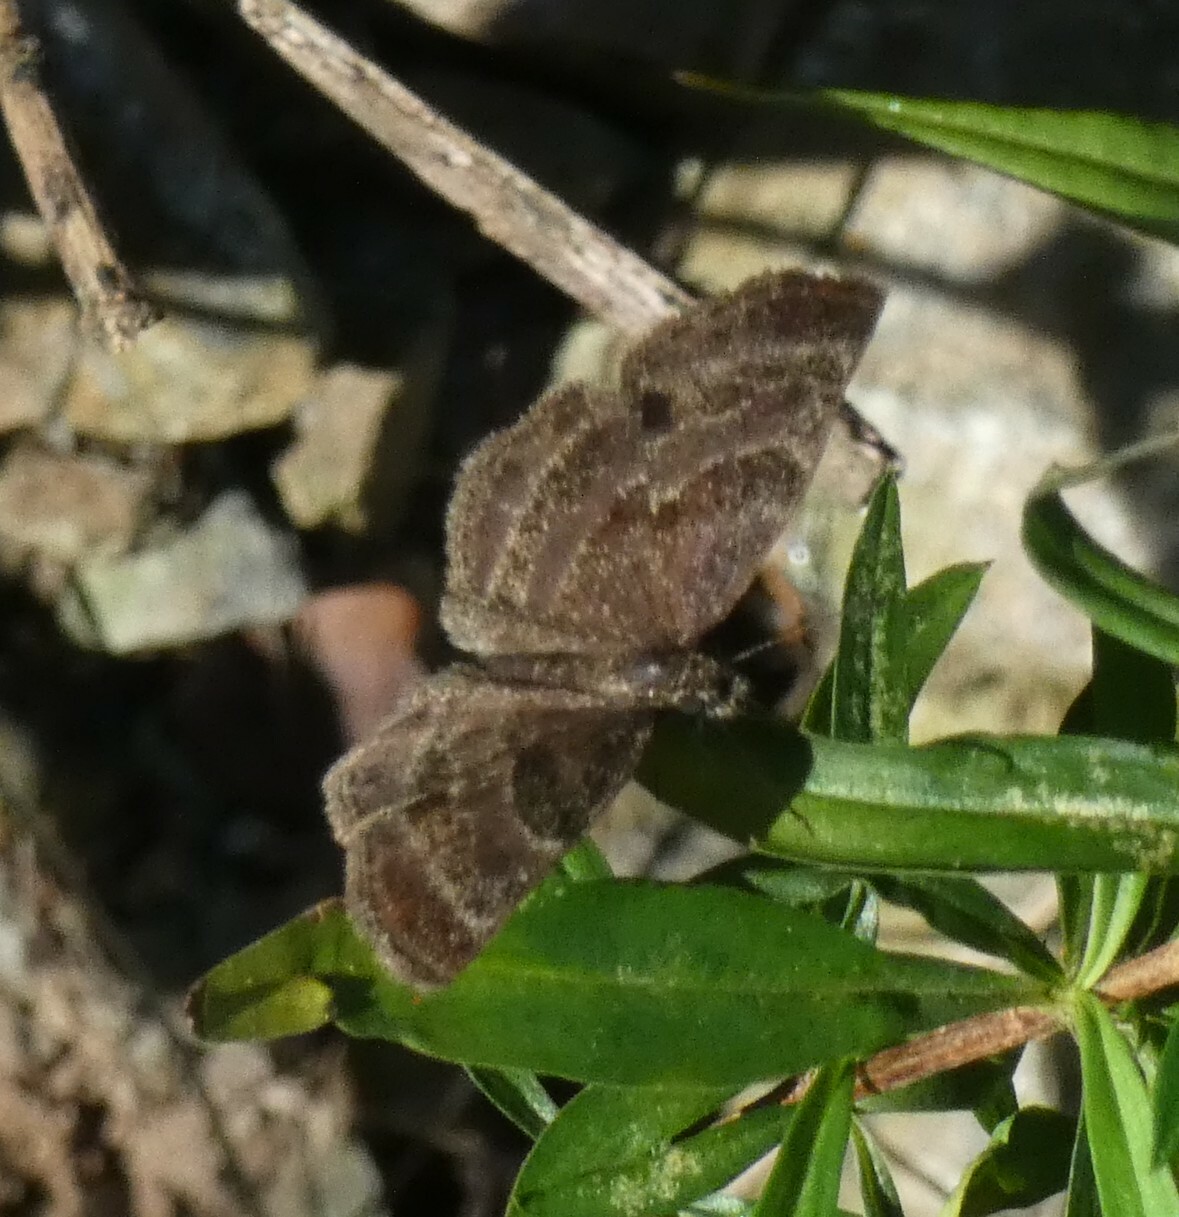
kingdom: Animalia
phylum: Arthropoda
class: Insecta
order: Lepidoptera
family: Hesperiidae
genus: Trina
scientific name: Trina geometrina
